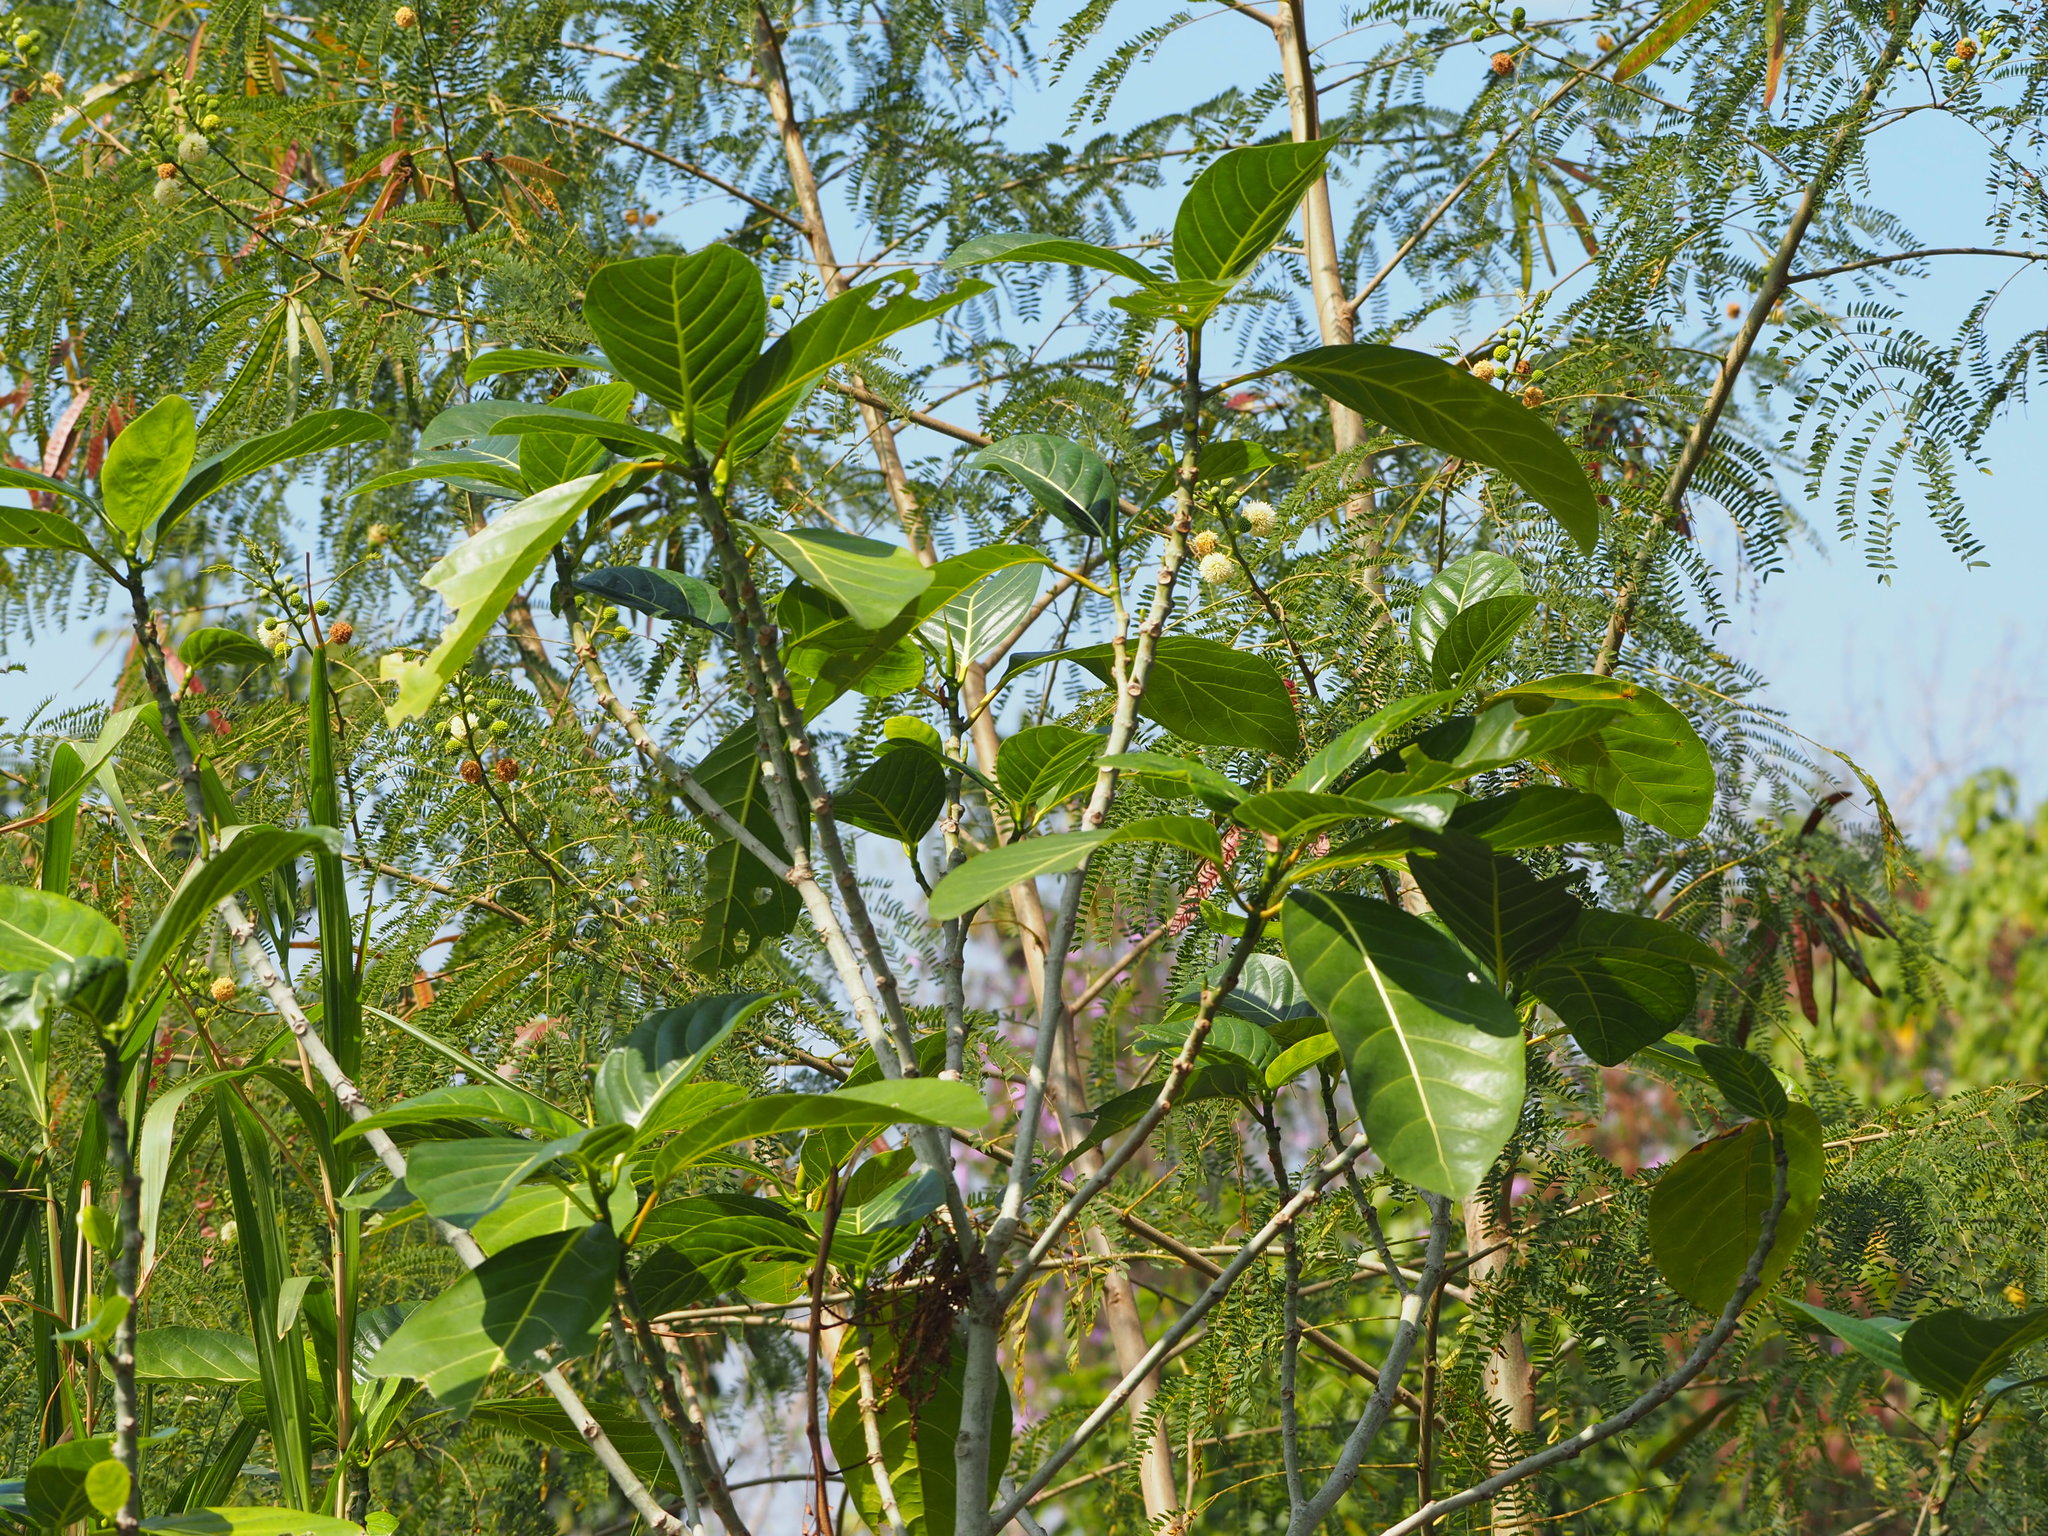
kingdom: Plantae
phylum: Tracheophyta
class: Magnoliopsida
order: Rosales
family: Moraceae
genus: Ficus
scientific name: Ficus septica
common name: Septic fig
